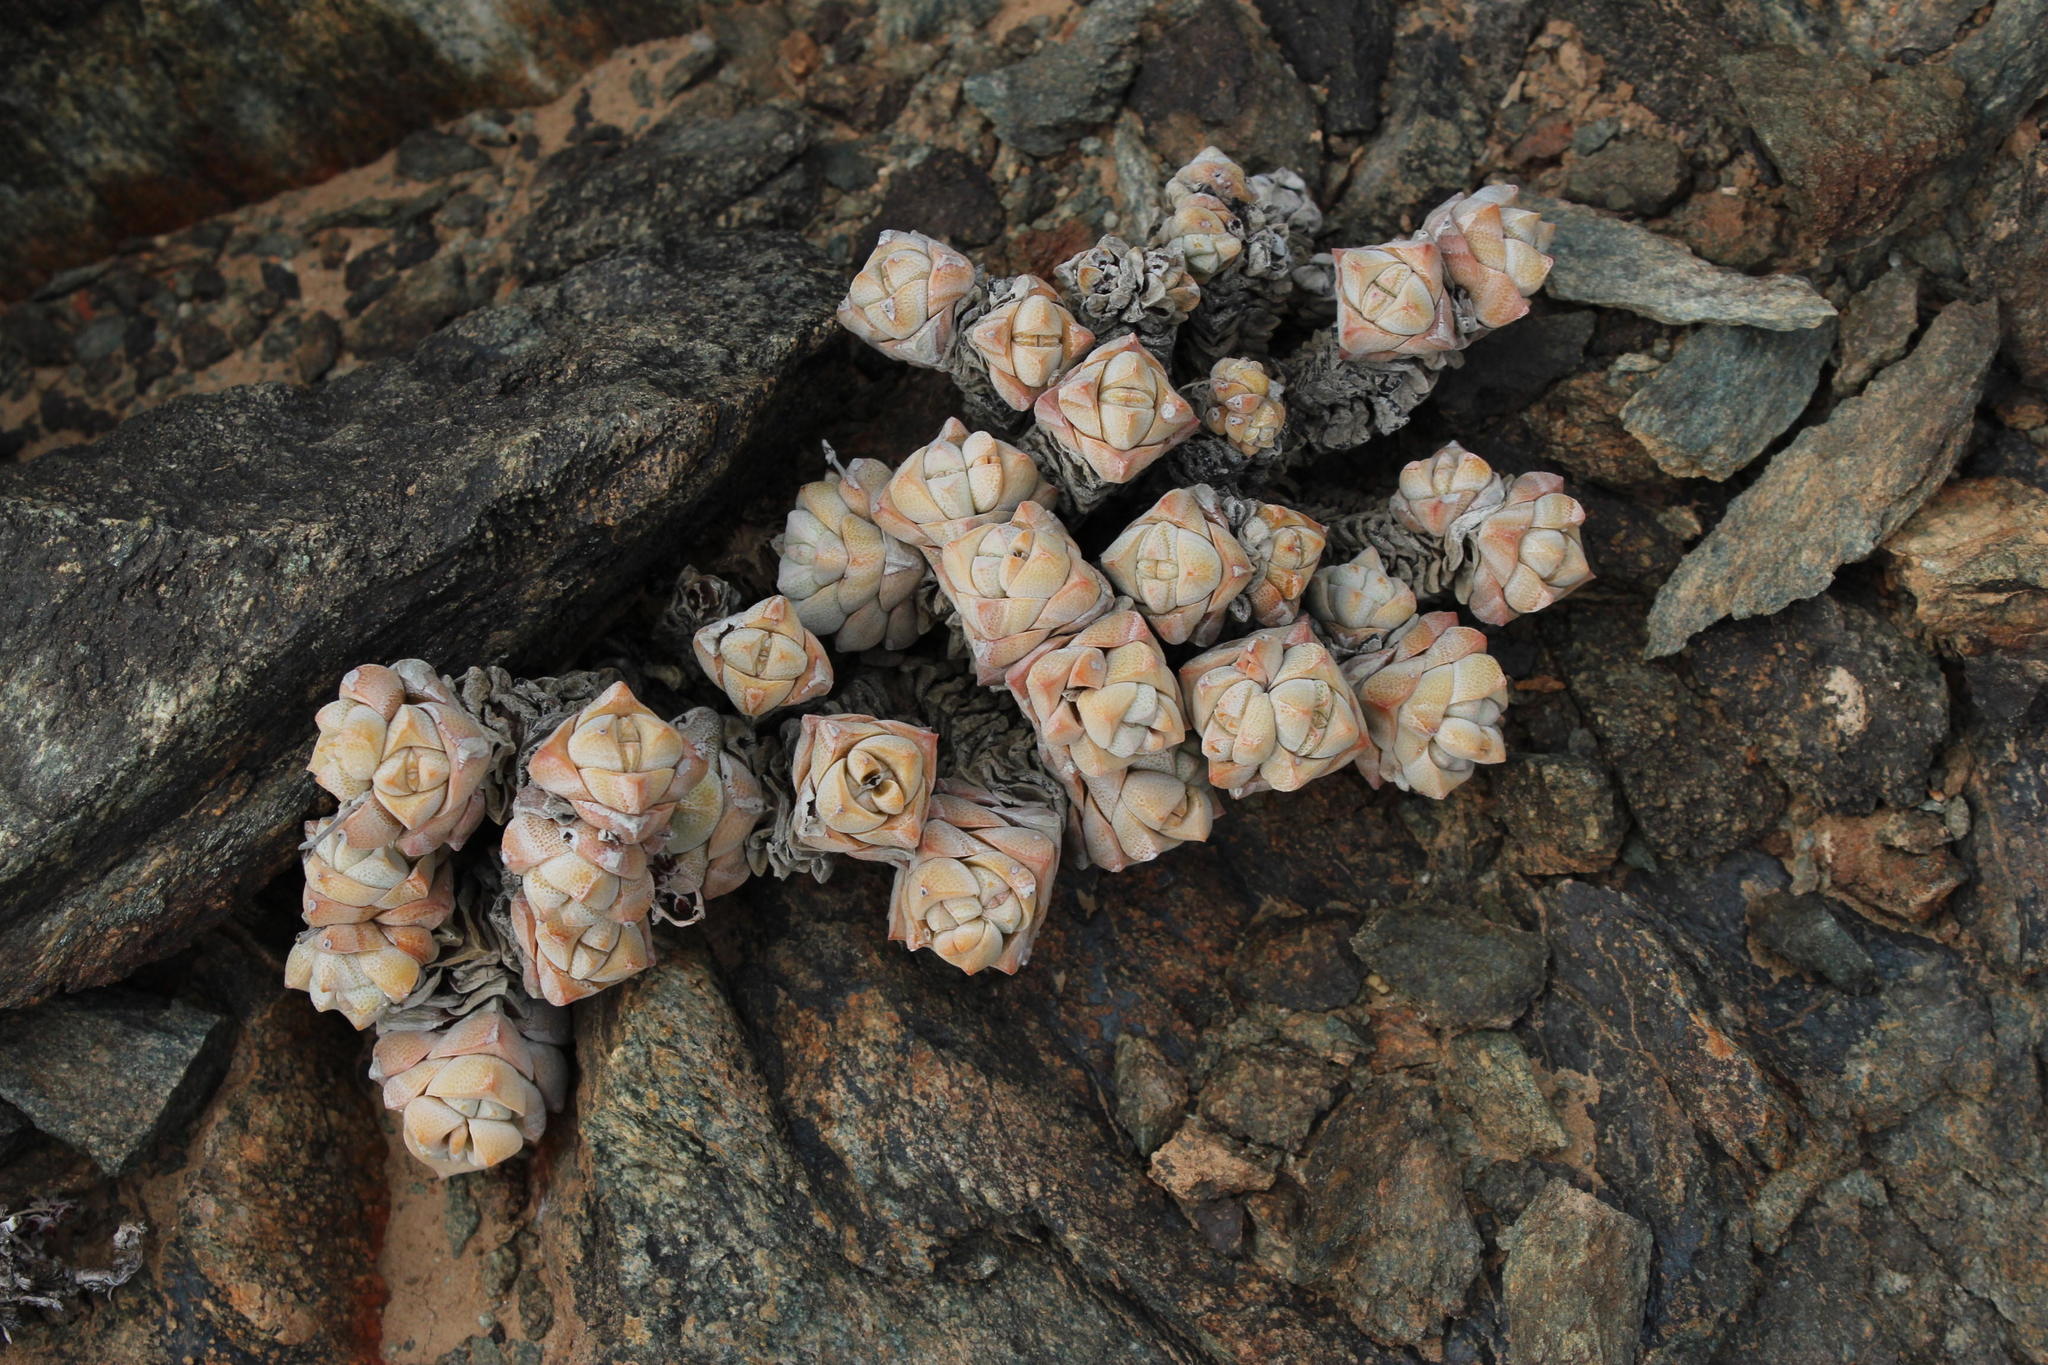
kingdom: Plantae
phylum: Tracheophyta
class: Magnoliopsida
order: Saxifragales
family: Crassulaceae
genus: Crassula
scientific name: Crassula deceptor
